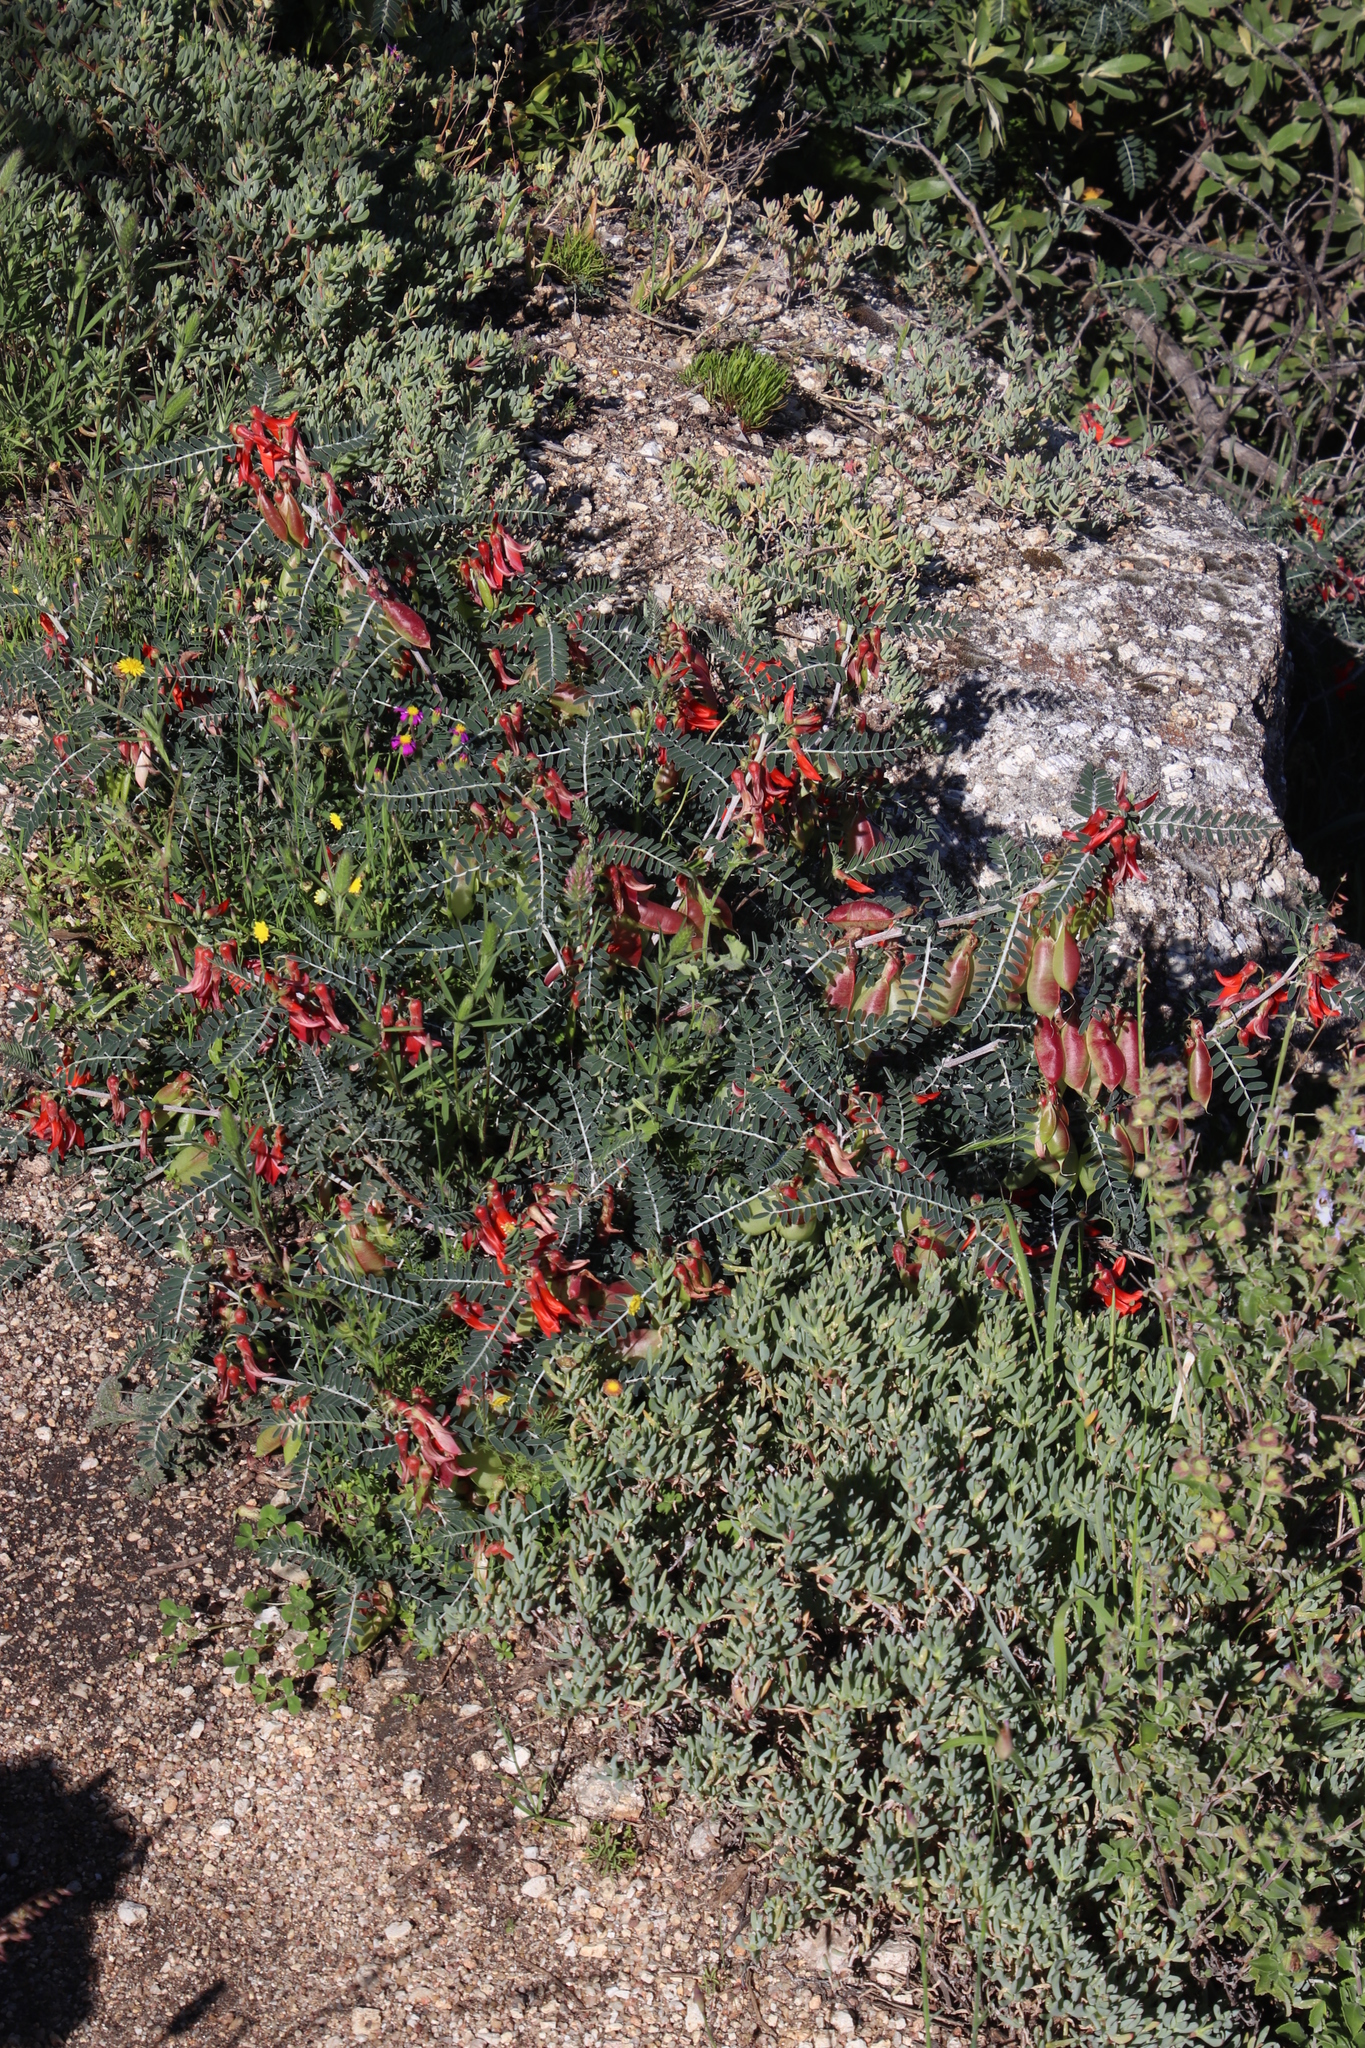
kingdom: Plantae
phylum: Tracheophyta
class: Magnoliopsida
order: Fabales
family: Fabaceae
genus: Lessertia
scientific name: Lessertia frutescens
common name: Balloon-pea
